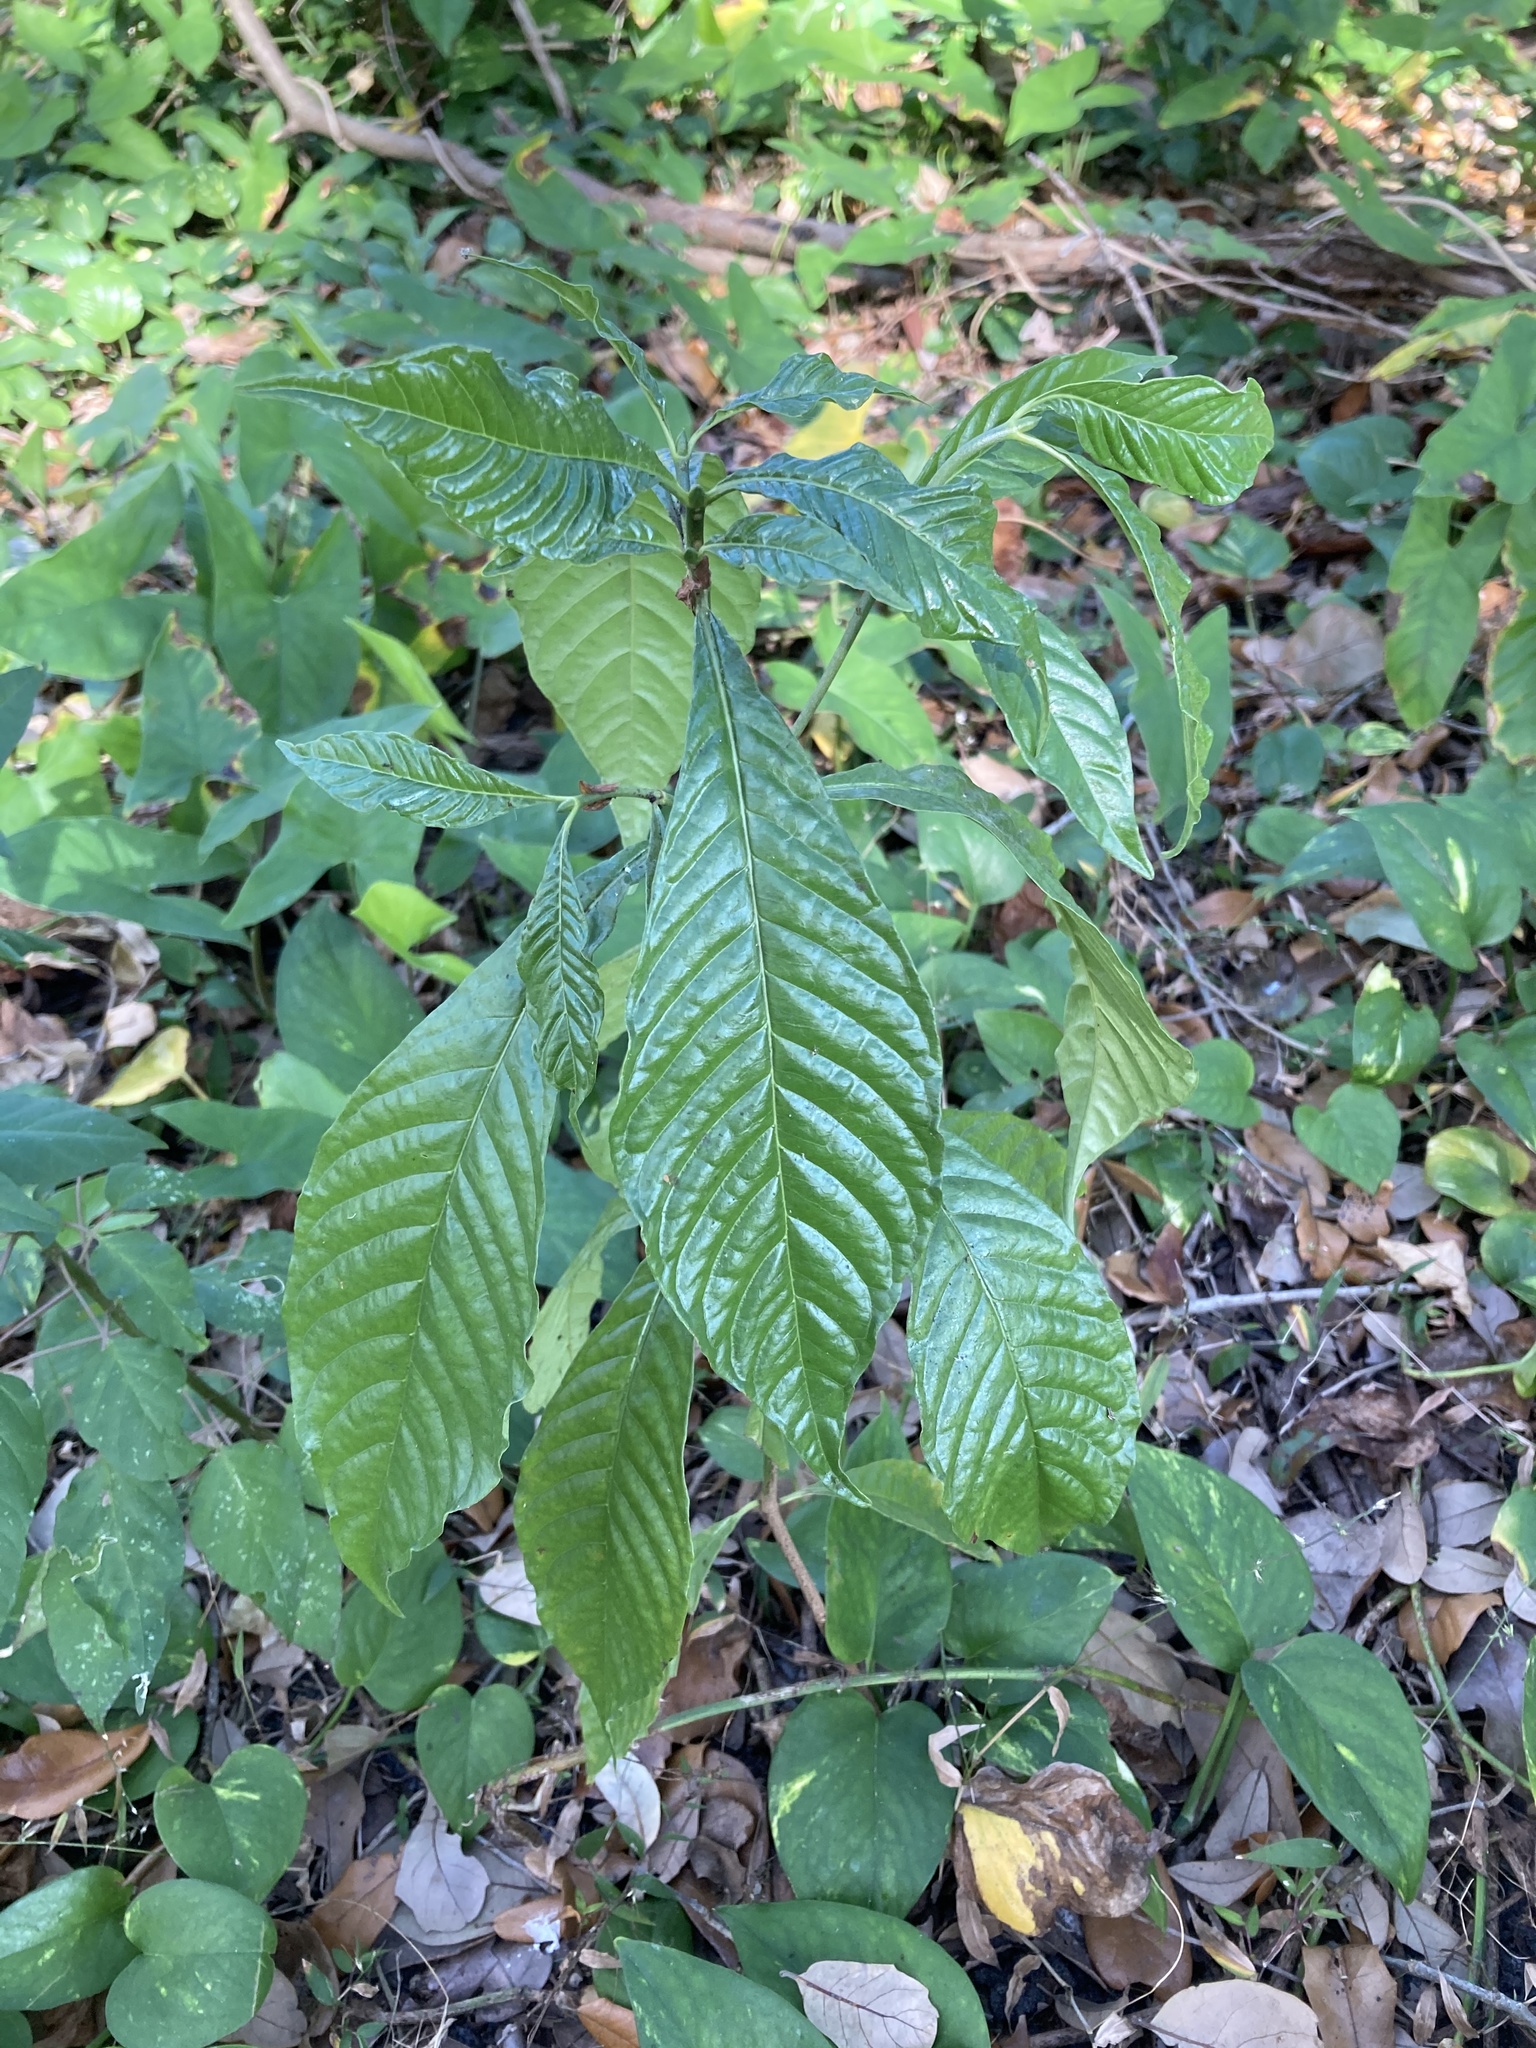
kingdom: Plantae
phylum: Tracheophyta
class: Magnoliopsida
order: Gentianales
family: Rubiaceae
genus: Psychotria
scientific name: Psychotria nervosa
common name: Bastard cankerberry
